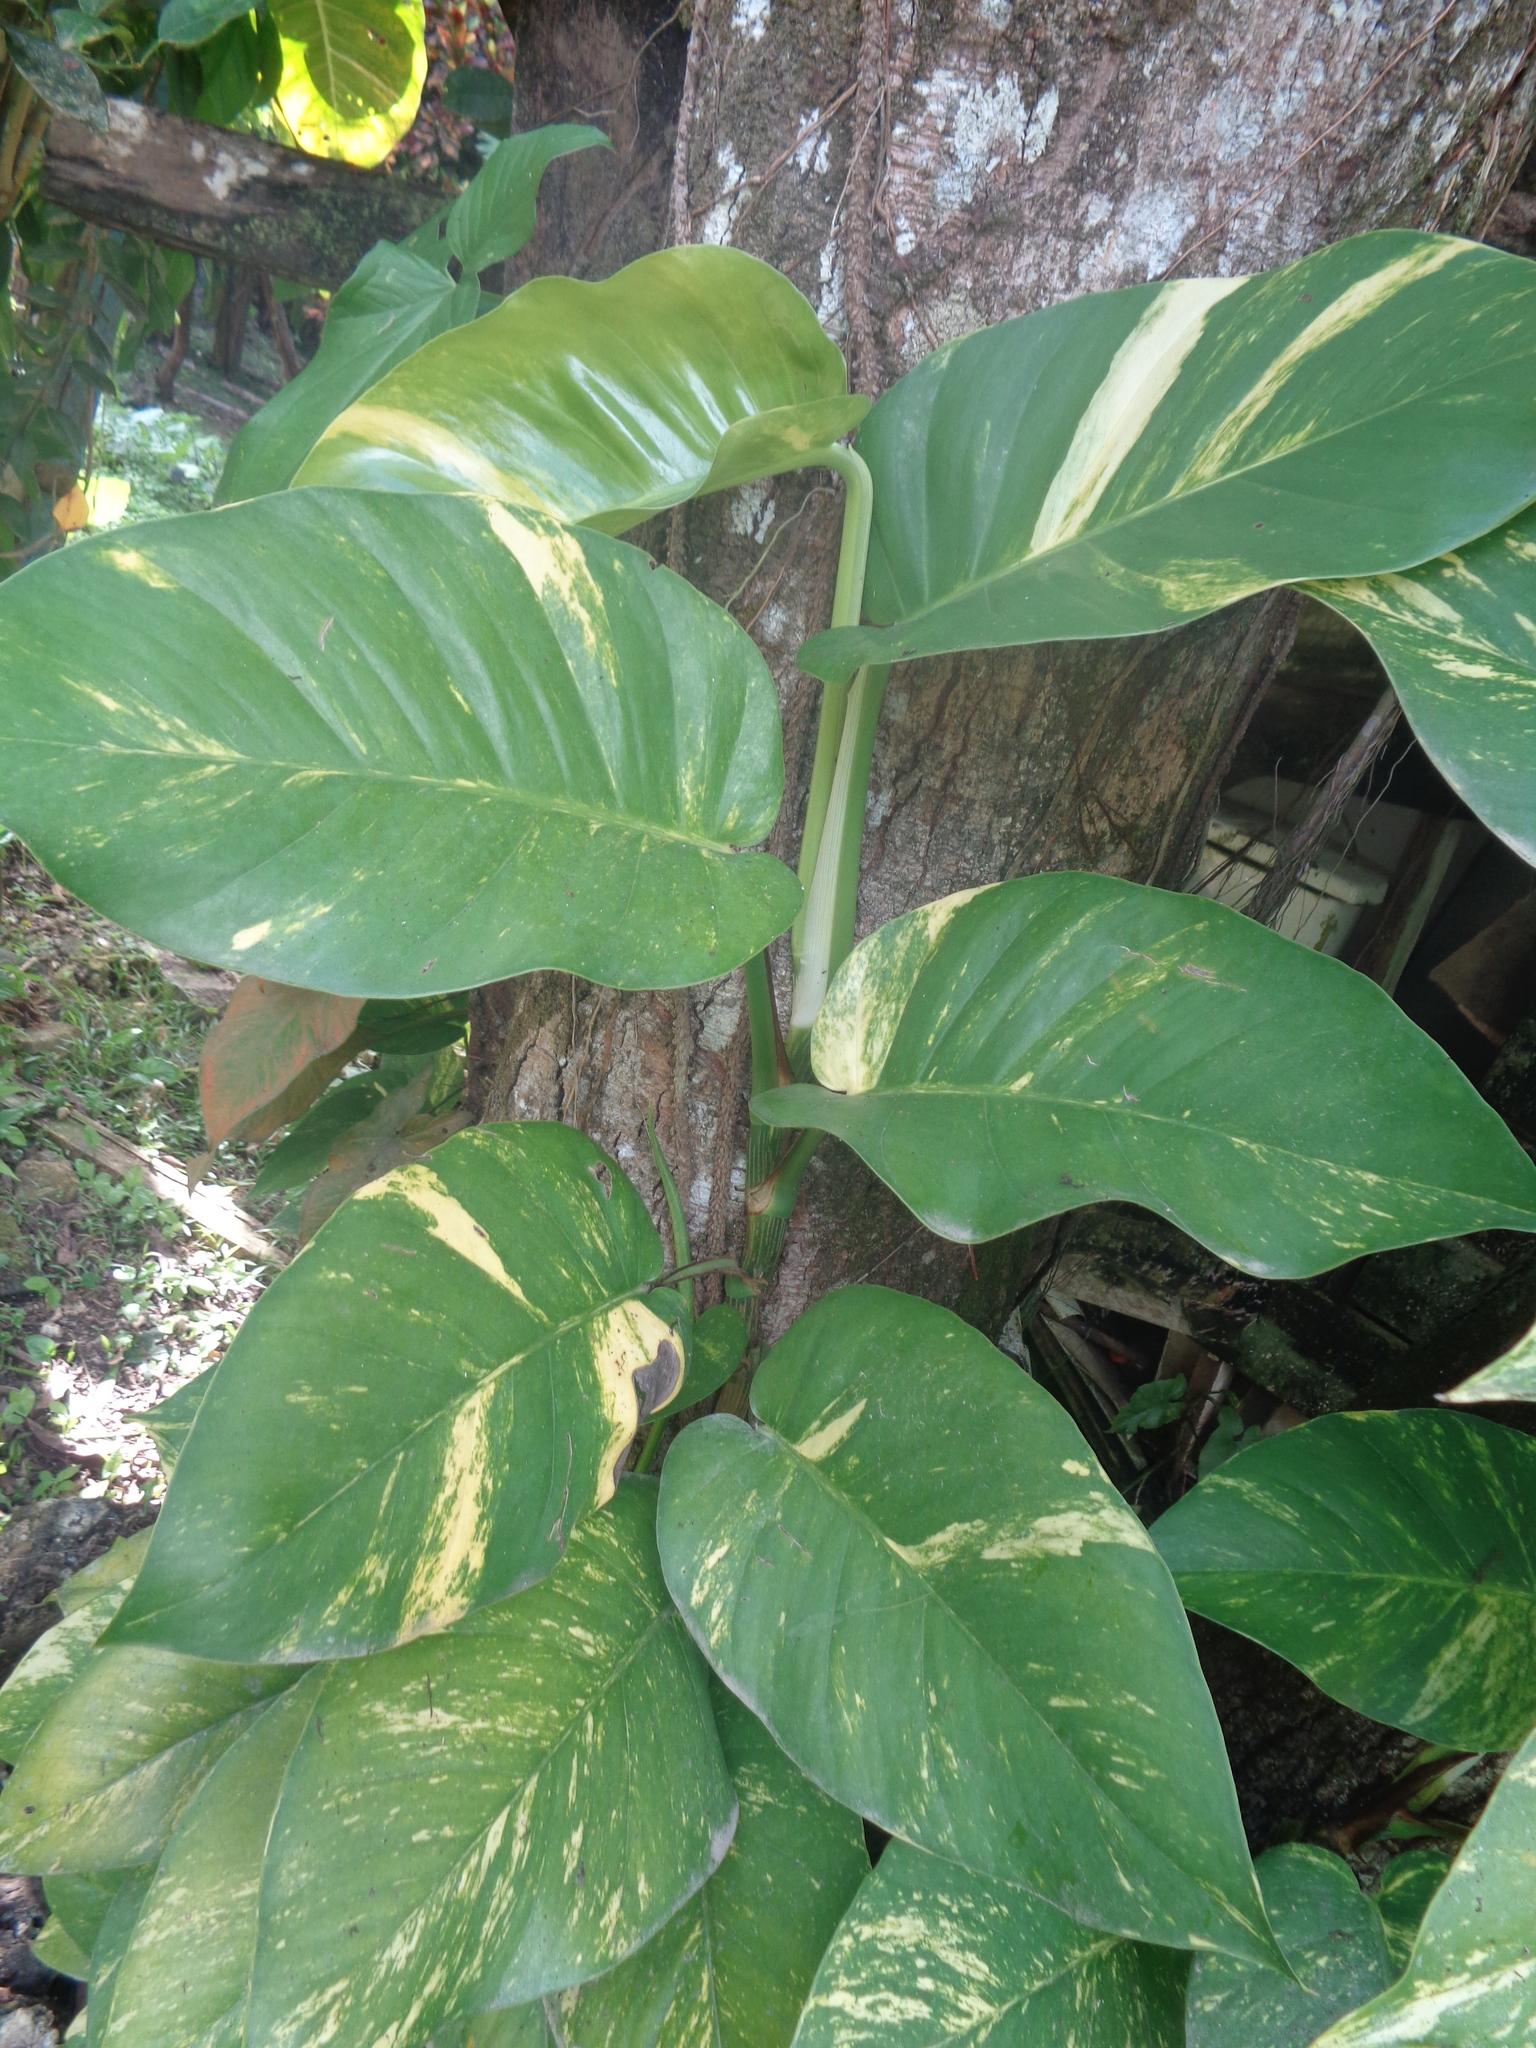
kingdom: Plantae
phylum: Tracheophyta
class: Liliopsida
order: Alismatales
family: Araceae
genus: Epipremnum
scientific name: Epipremnum aureum
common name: Golden hunter's-robe
